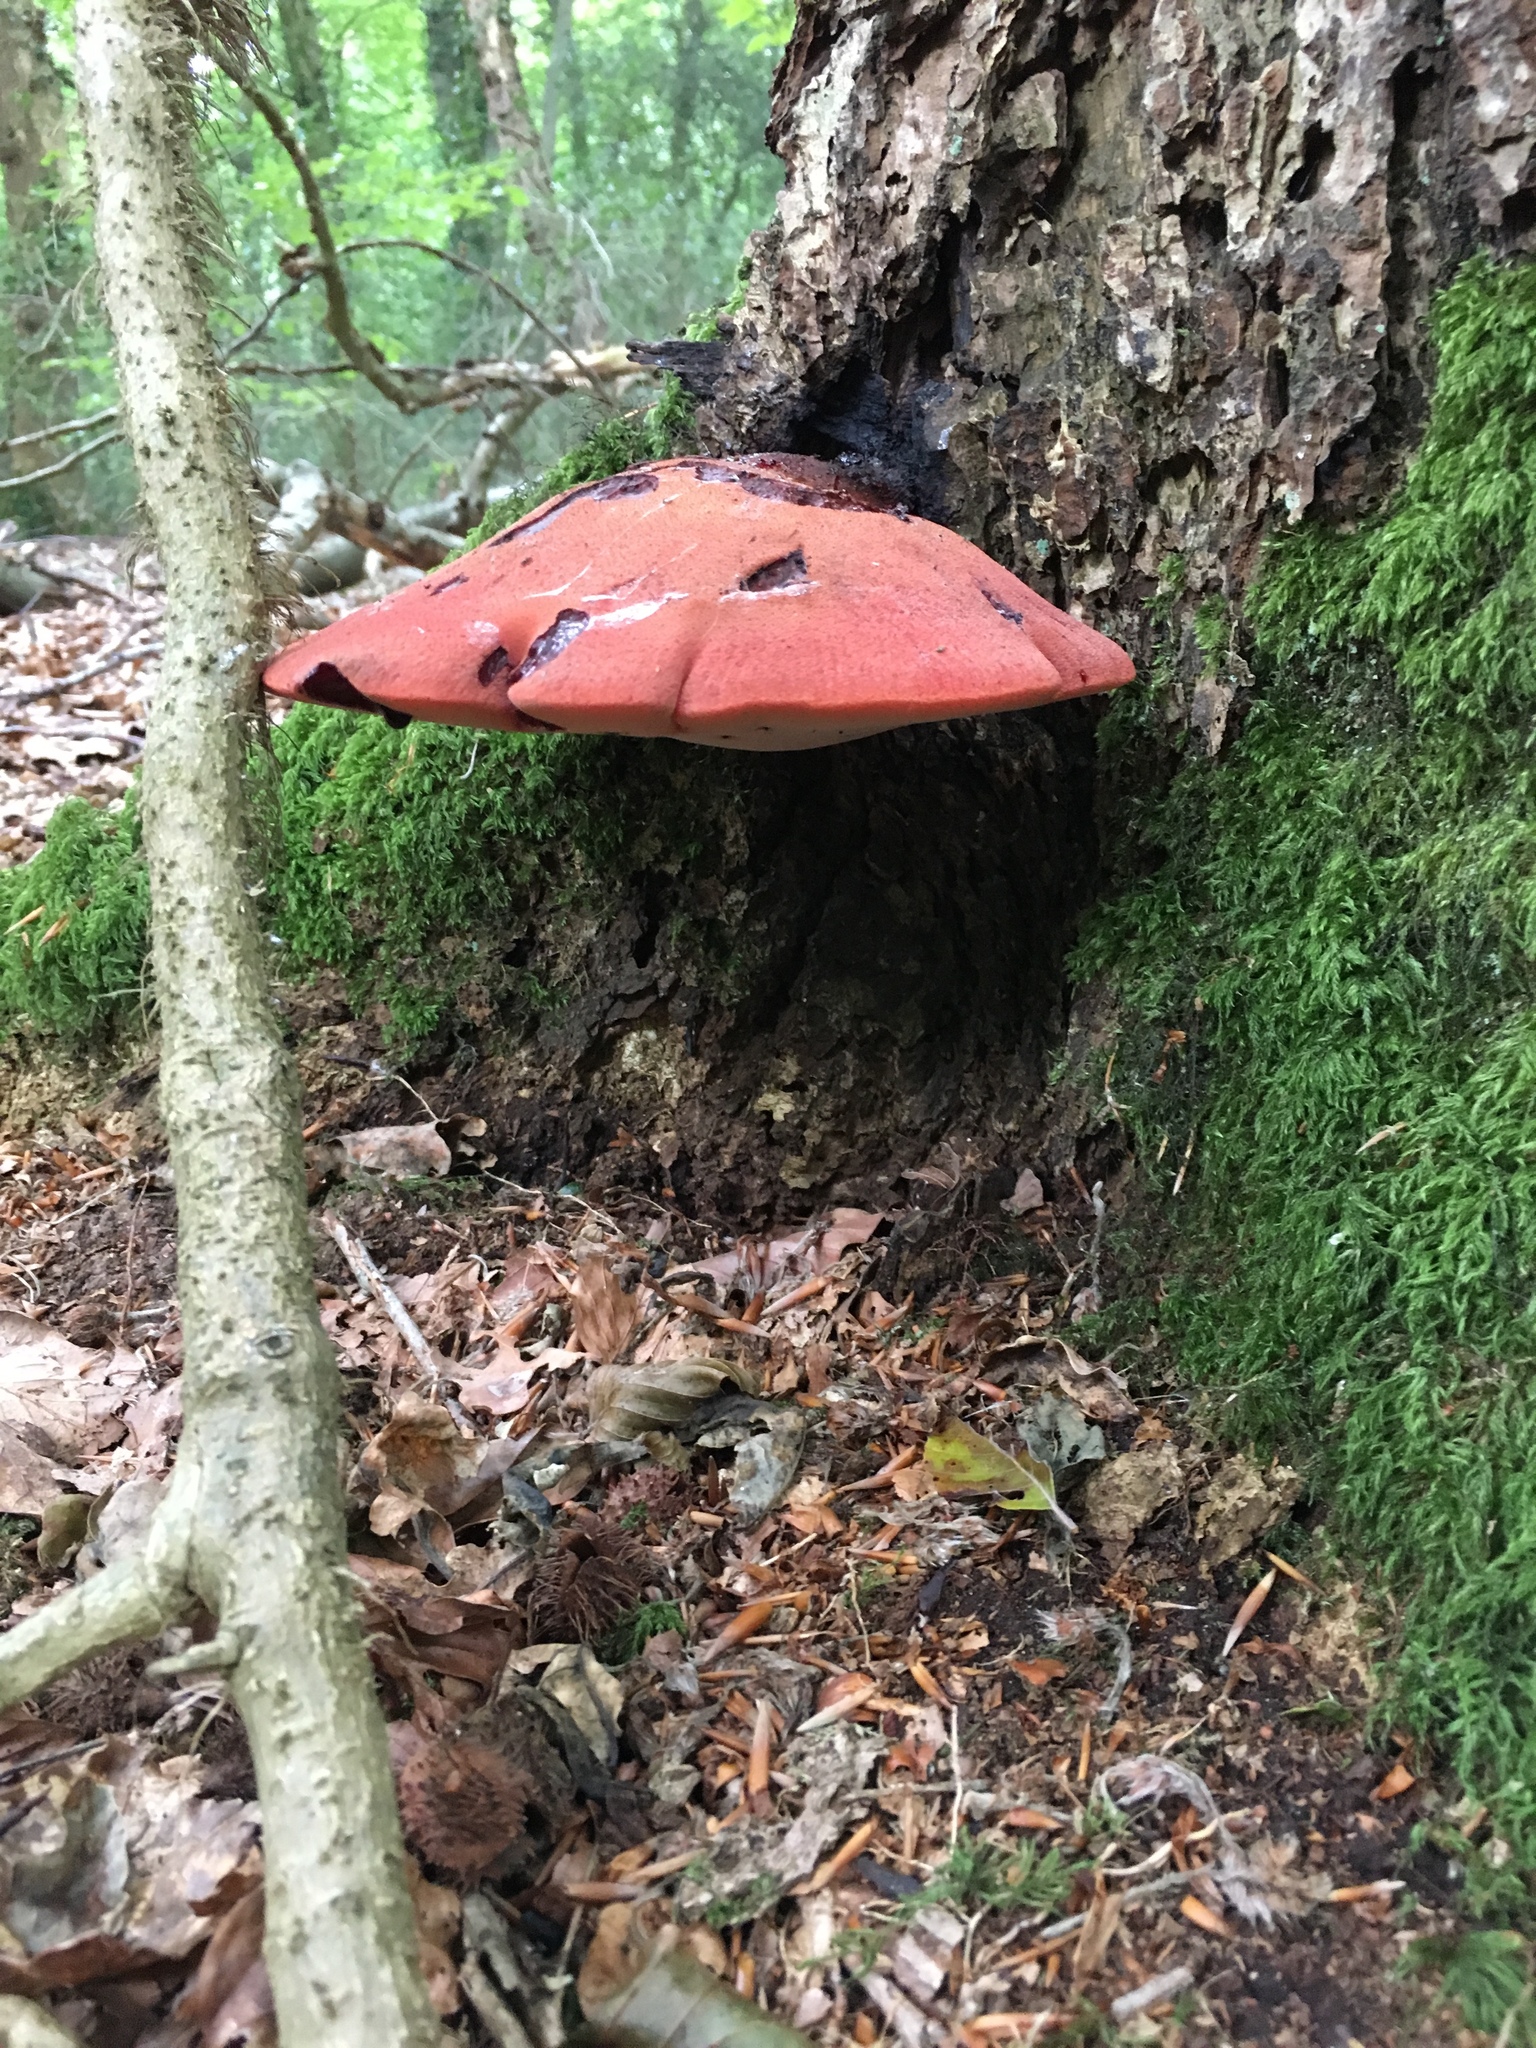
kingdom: Fungi
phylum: Basidiomycota
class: Agaricomycetes
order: Agaricales
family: Fistulinaceae
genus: Fistulina
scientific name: Fistulina hepatica
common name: Beef-steak fungus
